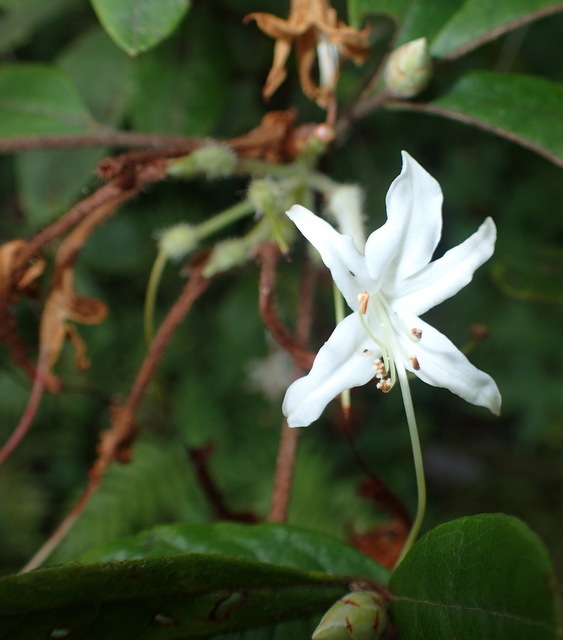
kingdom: Plantae
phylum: Tracheophyta
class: Magnoliopsida
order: Ericales
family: Ericaceae
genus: Rhododendron
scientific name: Rhododendron serrulatum
